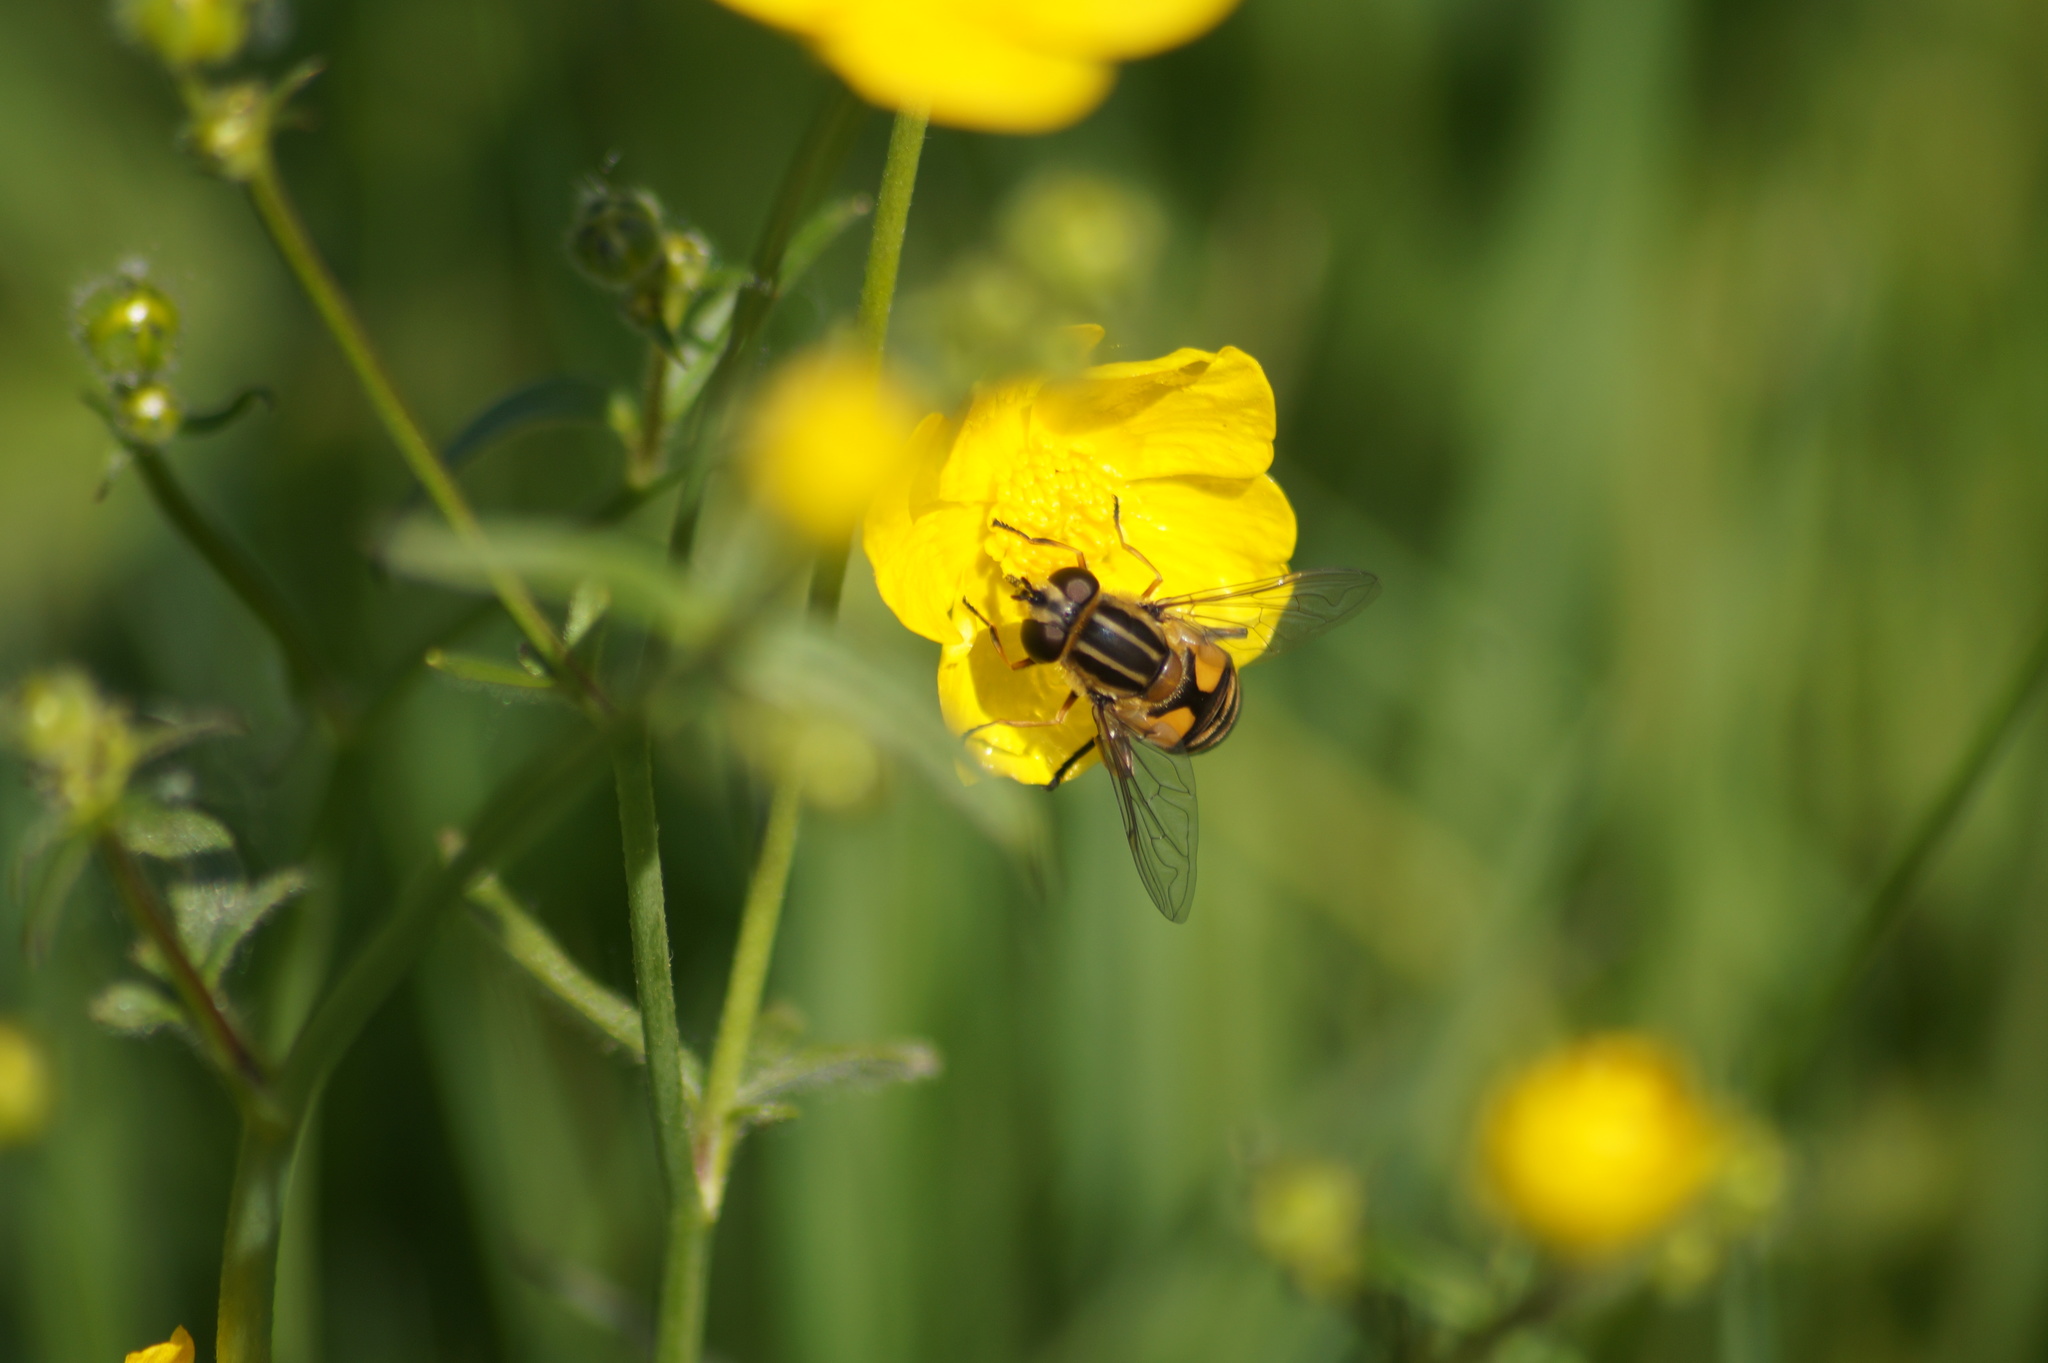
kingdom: Animalia
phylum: Arthropoda
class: Insecta
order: Diptera
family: Syrphidae
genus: Helophilus
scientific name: Helophilus hybridus
